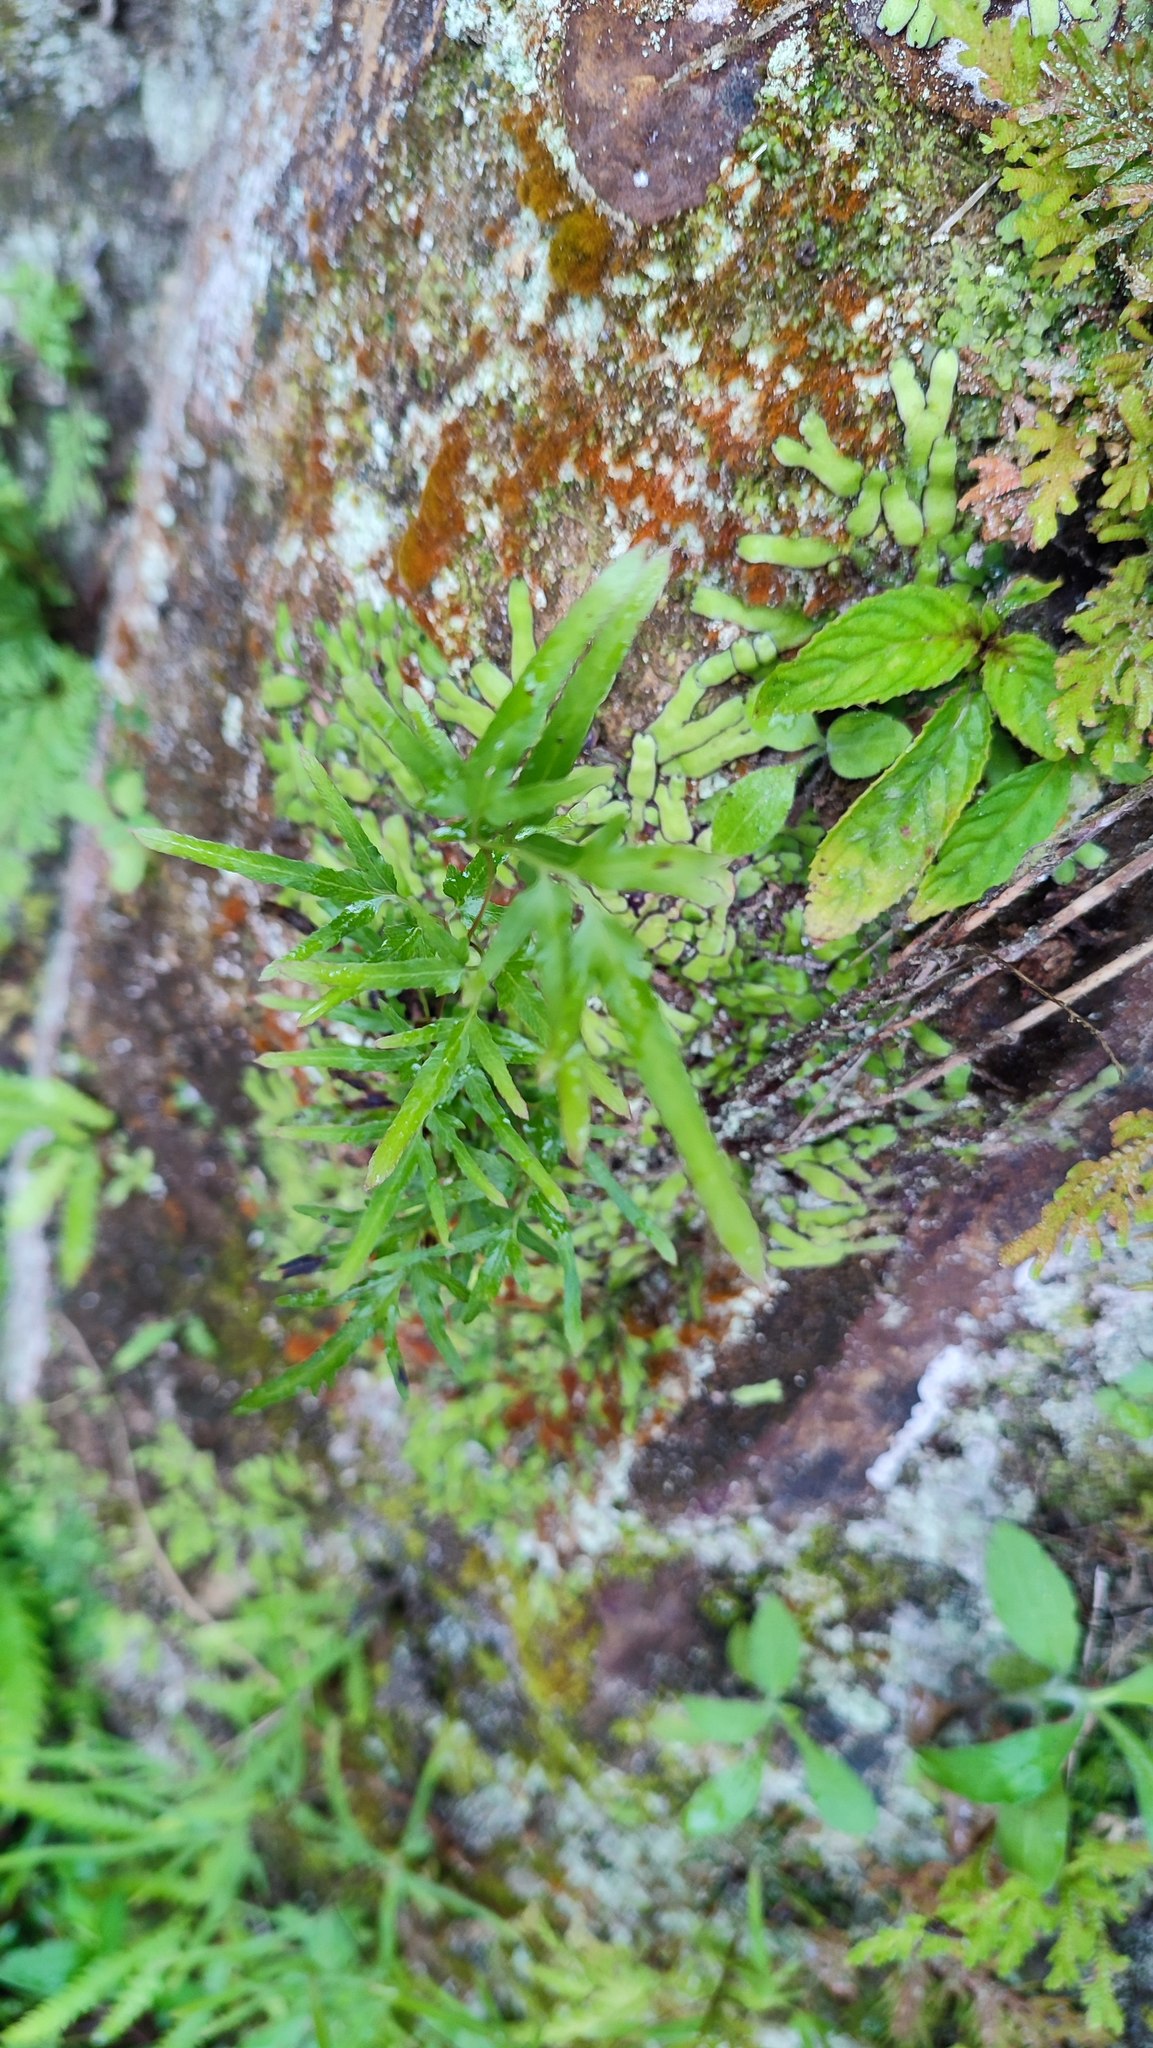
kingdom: Plantae
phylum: Tracheophyta
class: Polypodiopsida
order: Schizaeales
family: Lygodiaceae
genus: Lygodium
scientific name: Lygodium japonicum
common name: Japanese climbing fern
